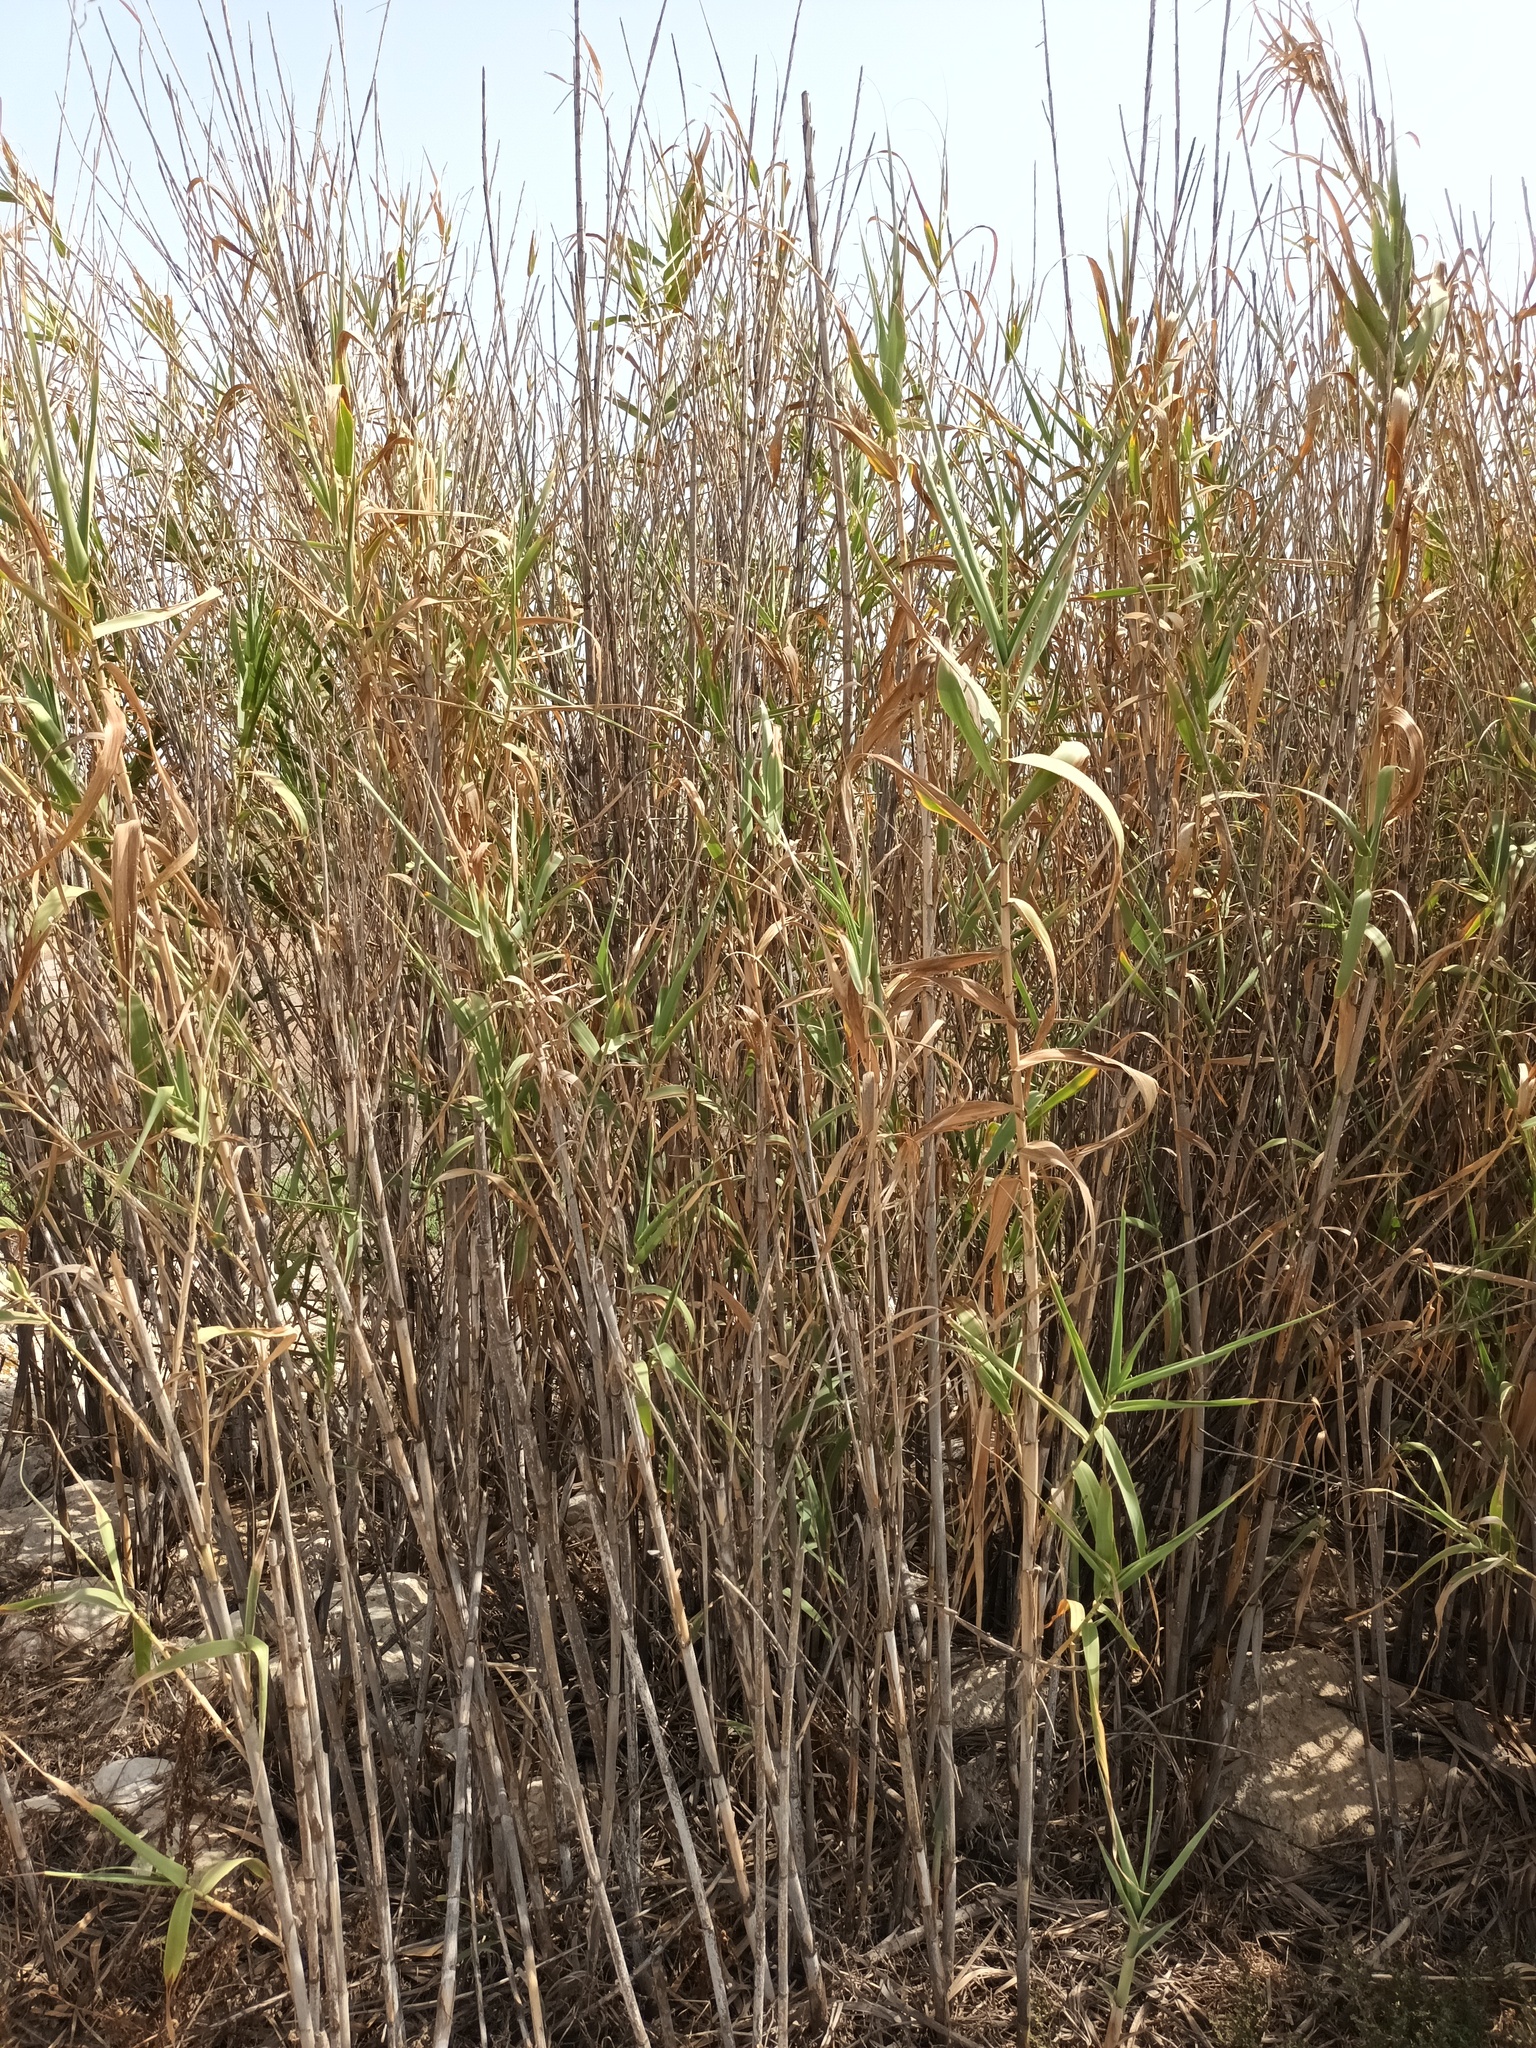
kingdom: Plantae
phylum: Tracheophyta
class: Liliopsida
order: Poales
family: Poaceae
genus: Arundo
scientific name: Arundo donax
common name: Giant reed
